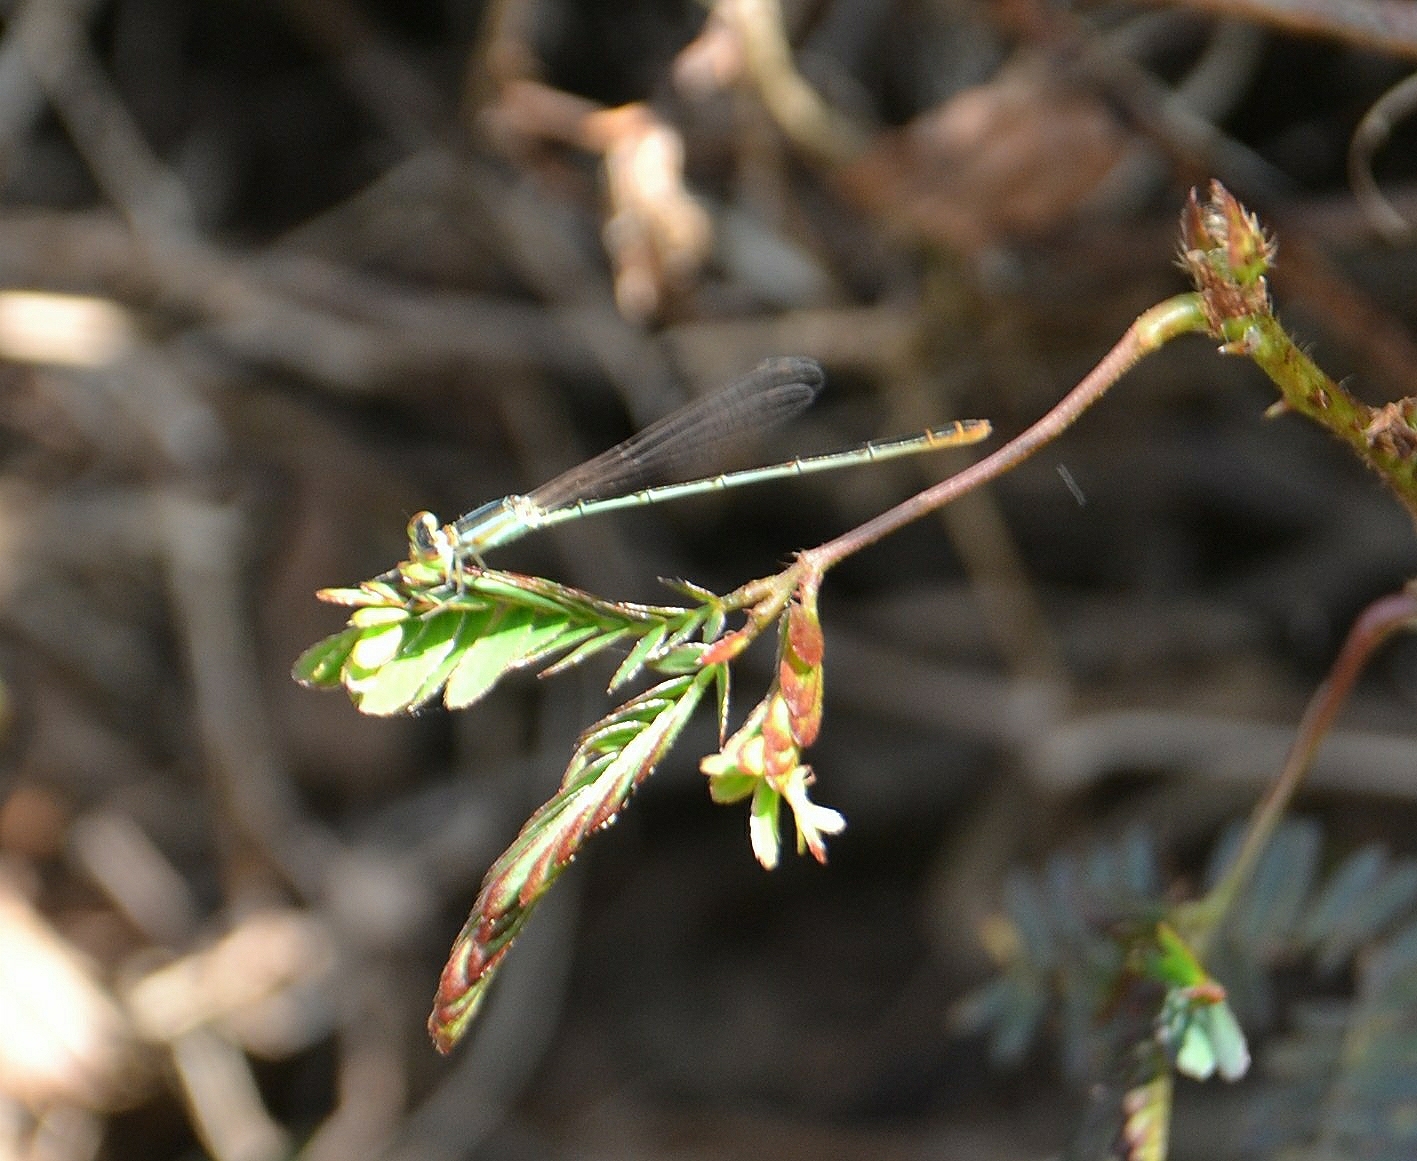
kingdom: Animalia
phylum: Arthropoda
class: Insecta
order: Odonata
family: Coenagrionidae
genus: Agriocnemis
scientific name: Agriocnemis pygmaea
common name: Pygmy wisp
